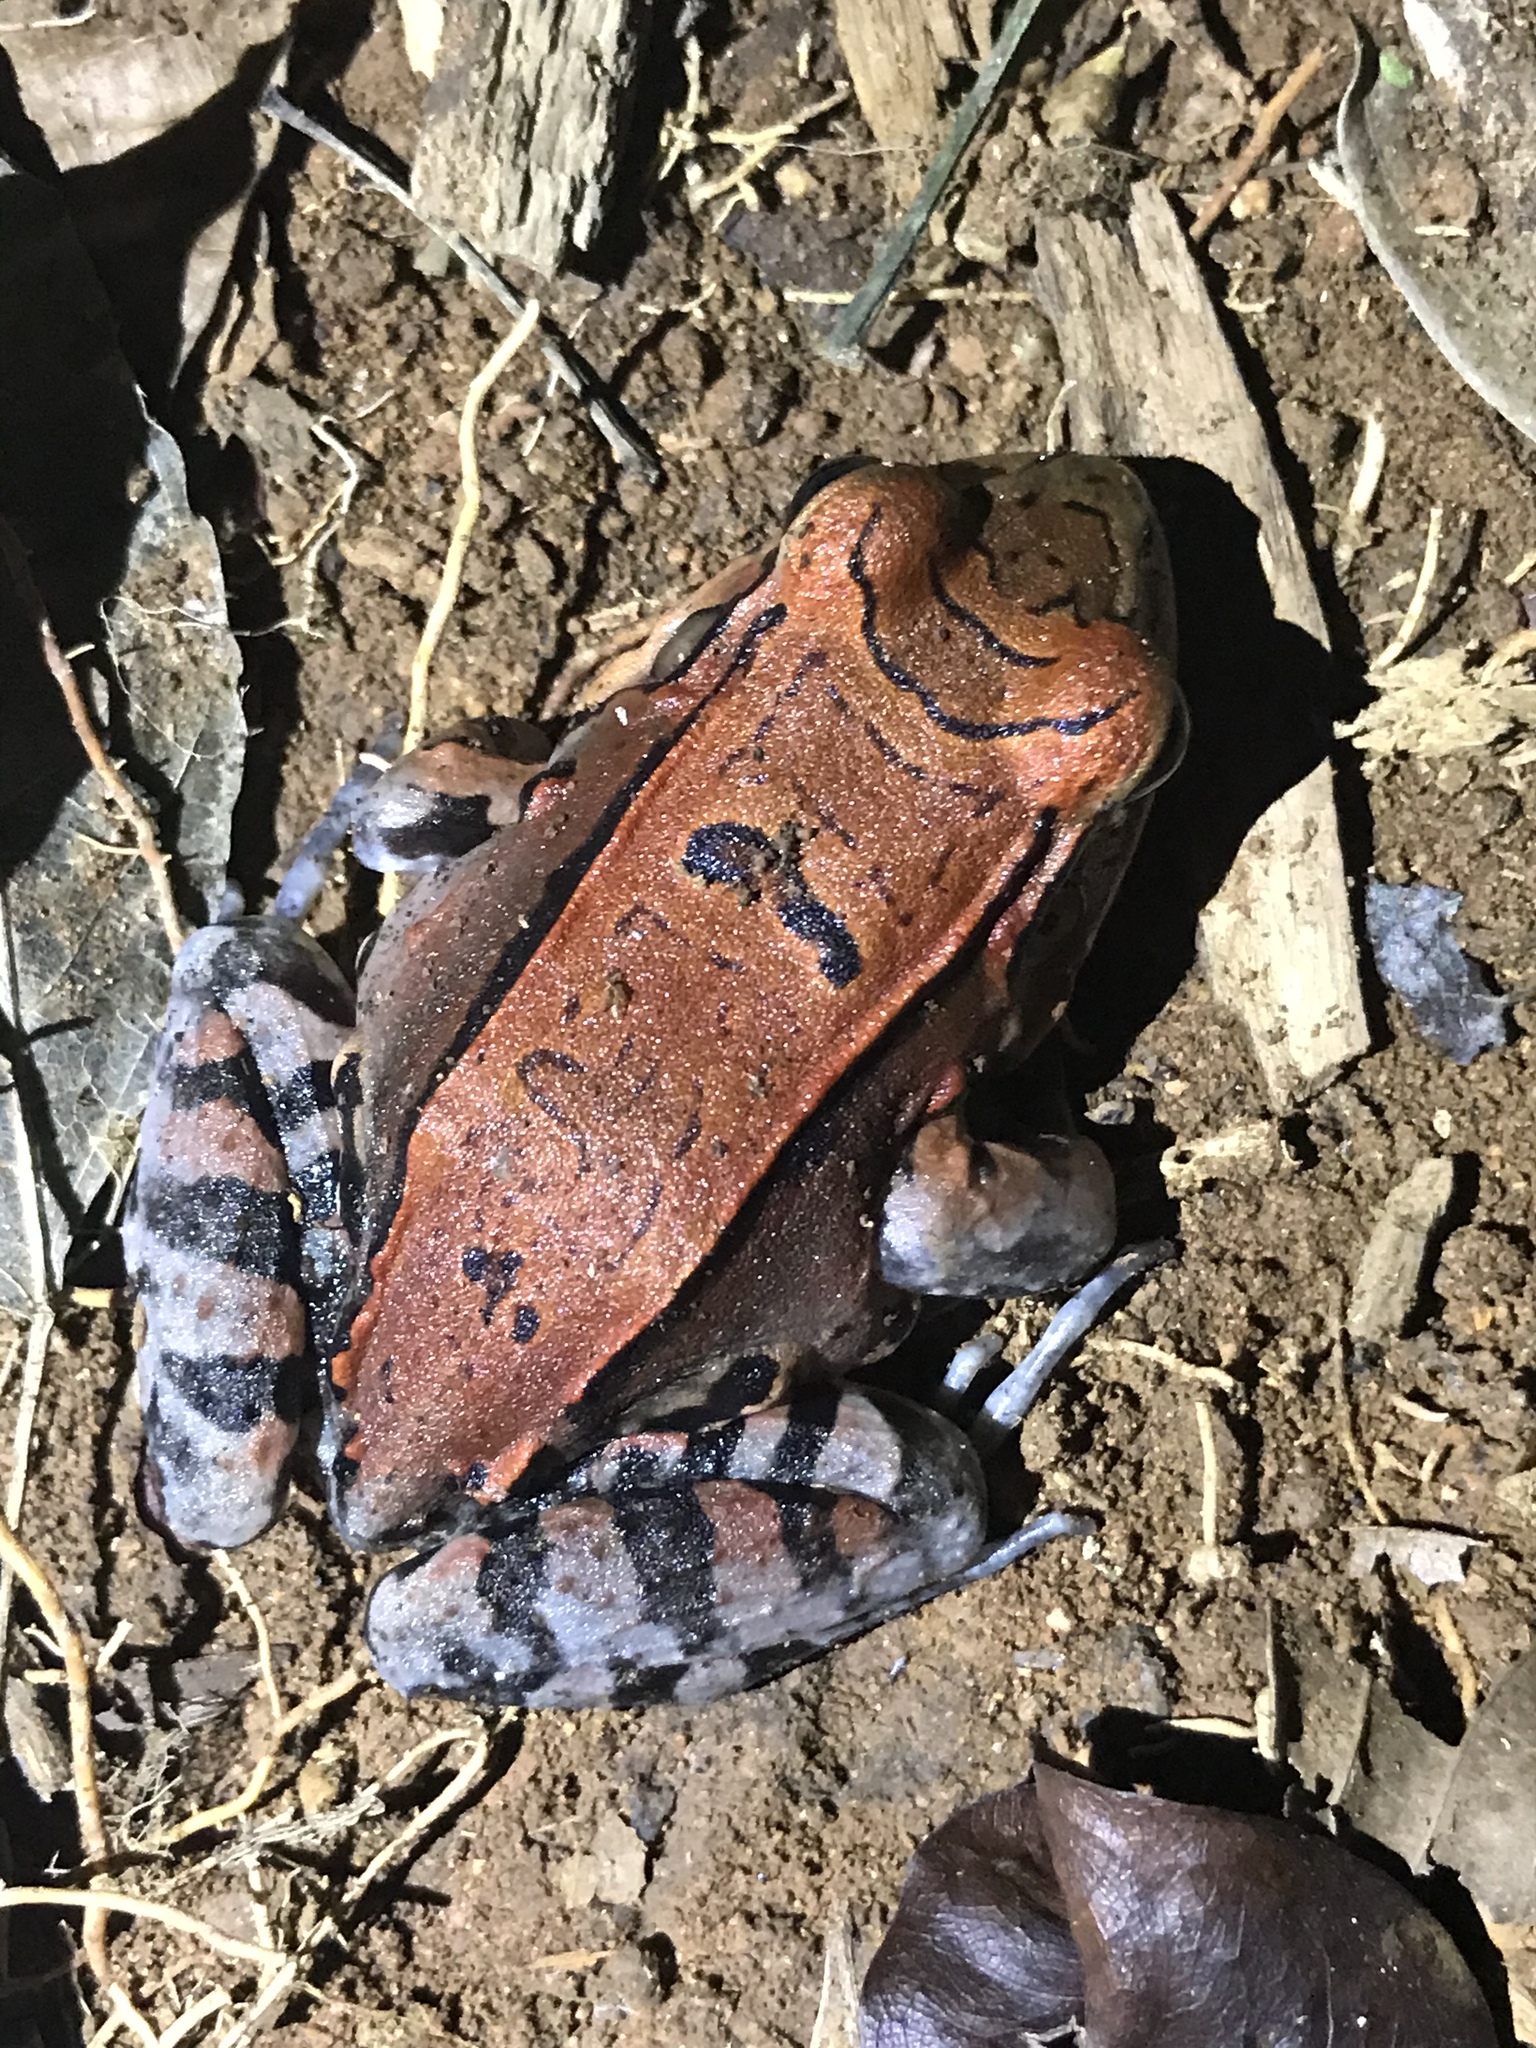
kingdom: Animalia
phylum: Chordata
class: Amphibia
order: Anura
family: Leptodactylidae
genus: Leptodactylus
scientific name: Leptodactylus savagei
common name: Savage's thin-toed frog
